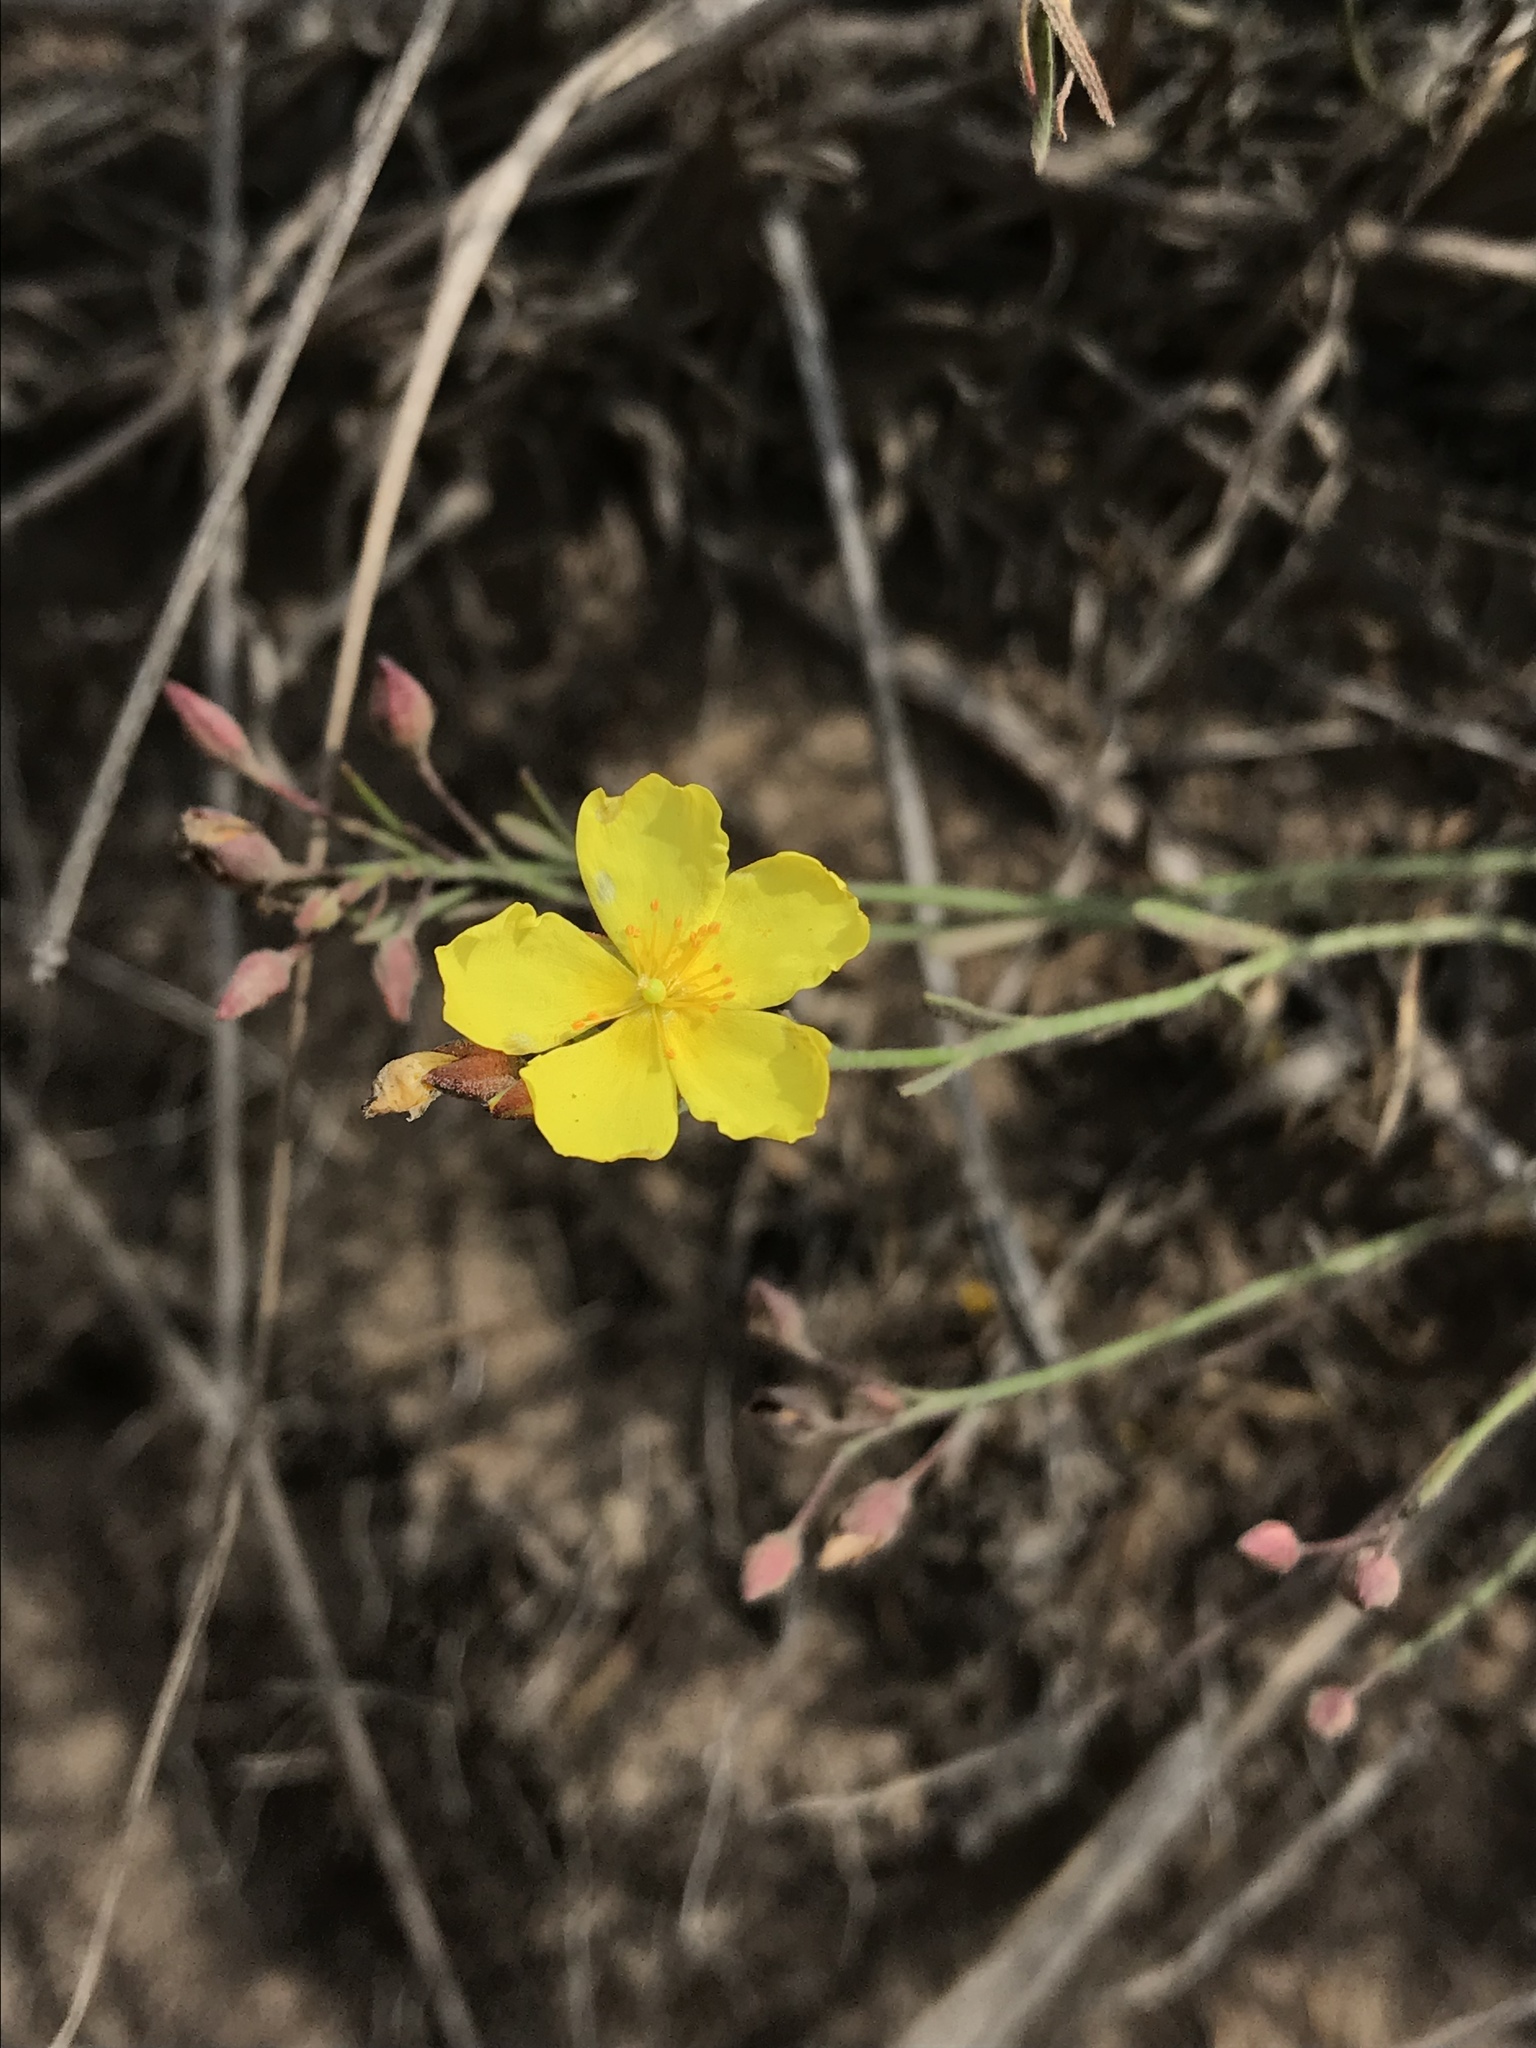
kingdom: Plantae
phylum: Tracheophyta
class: Magnoliopsida
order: Malvales
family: Cistaceae
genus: Crocanthemum
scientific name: Crocanthemum scoparium
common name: Broom-rose
